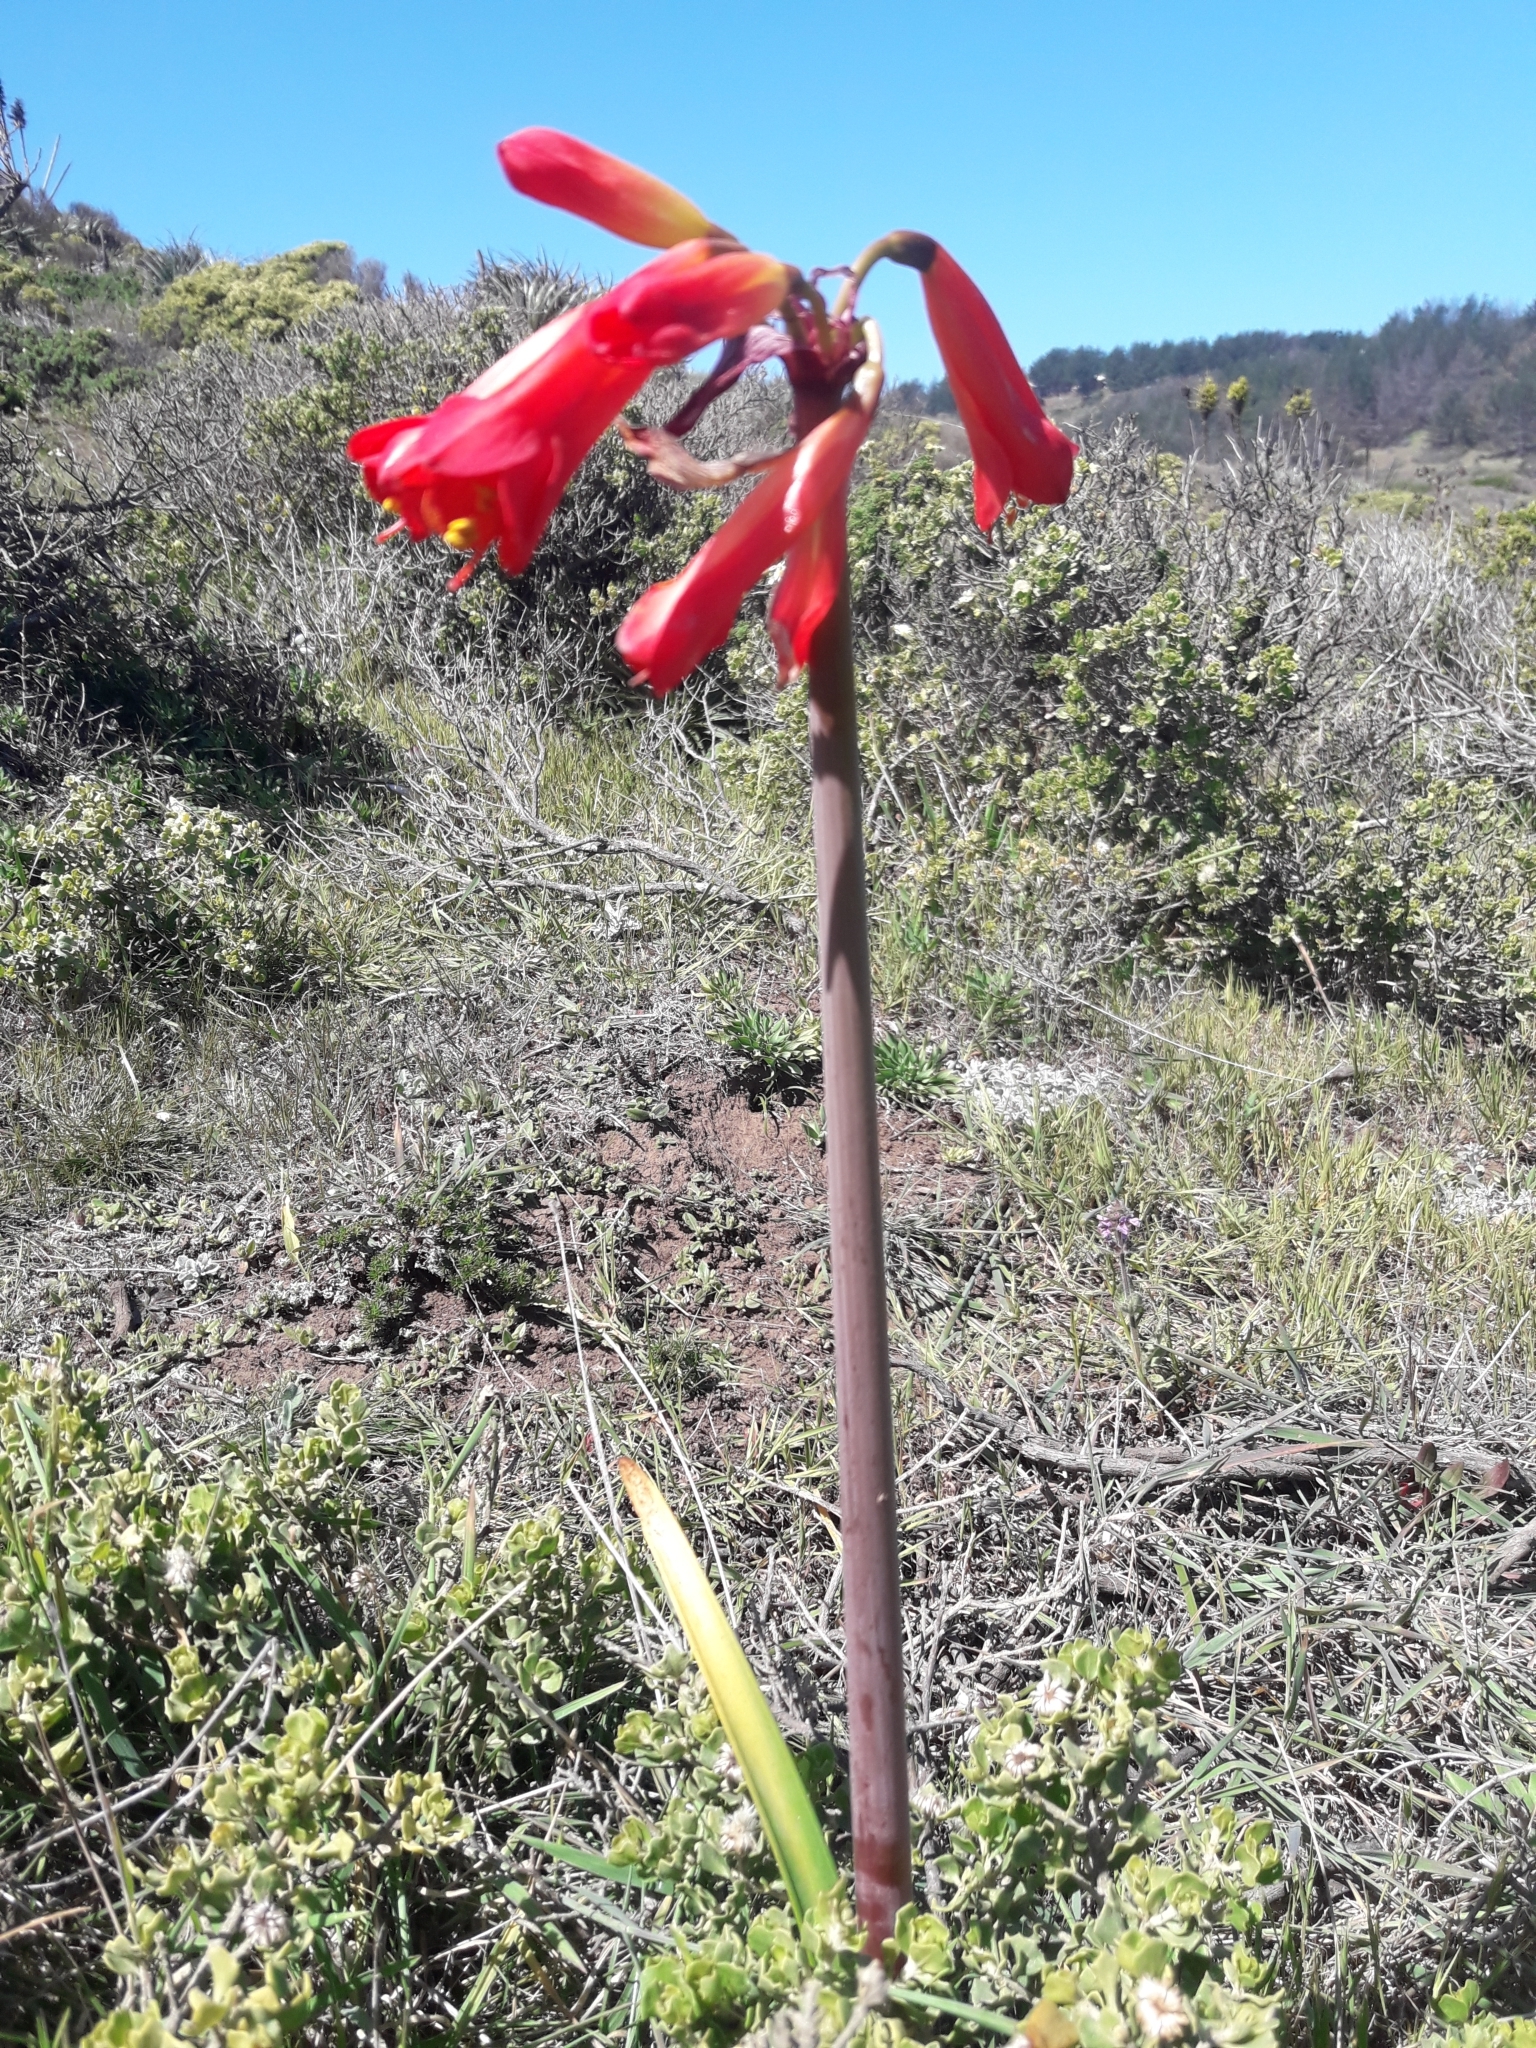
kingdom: Plantae
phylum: Tracheophyta
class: Liliopsida
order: Asparagales
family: Amaryllidaceae
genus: Phycella
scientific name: Phycella cyrtanthoides
